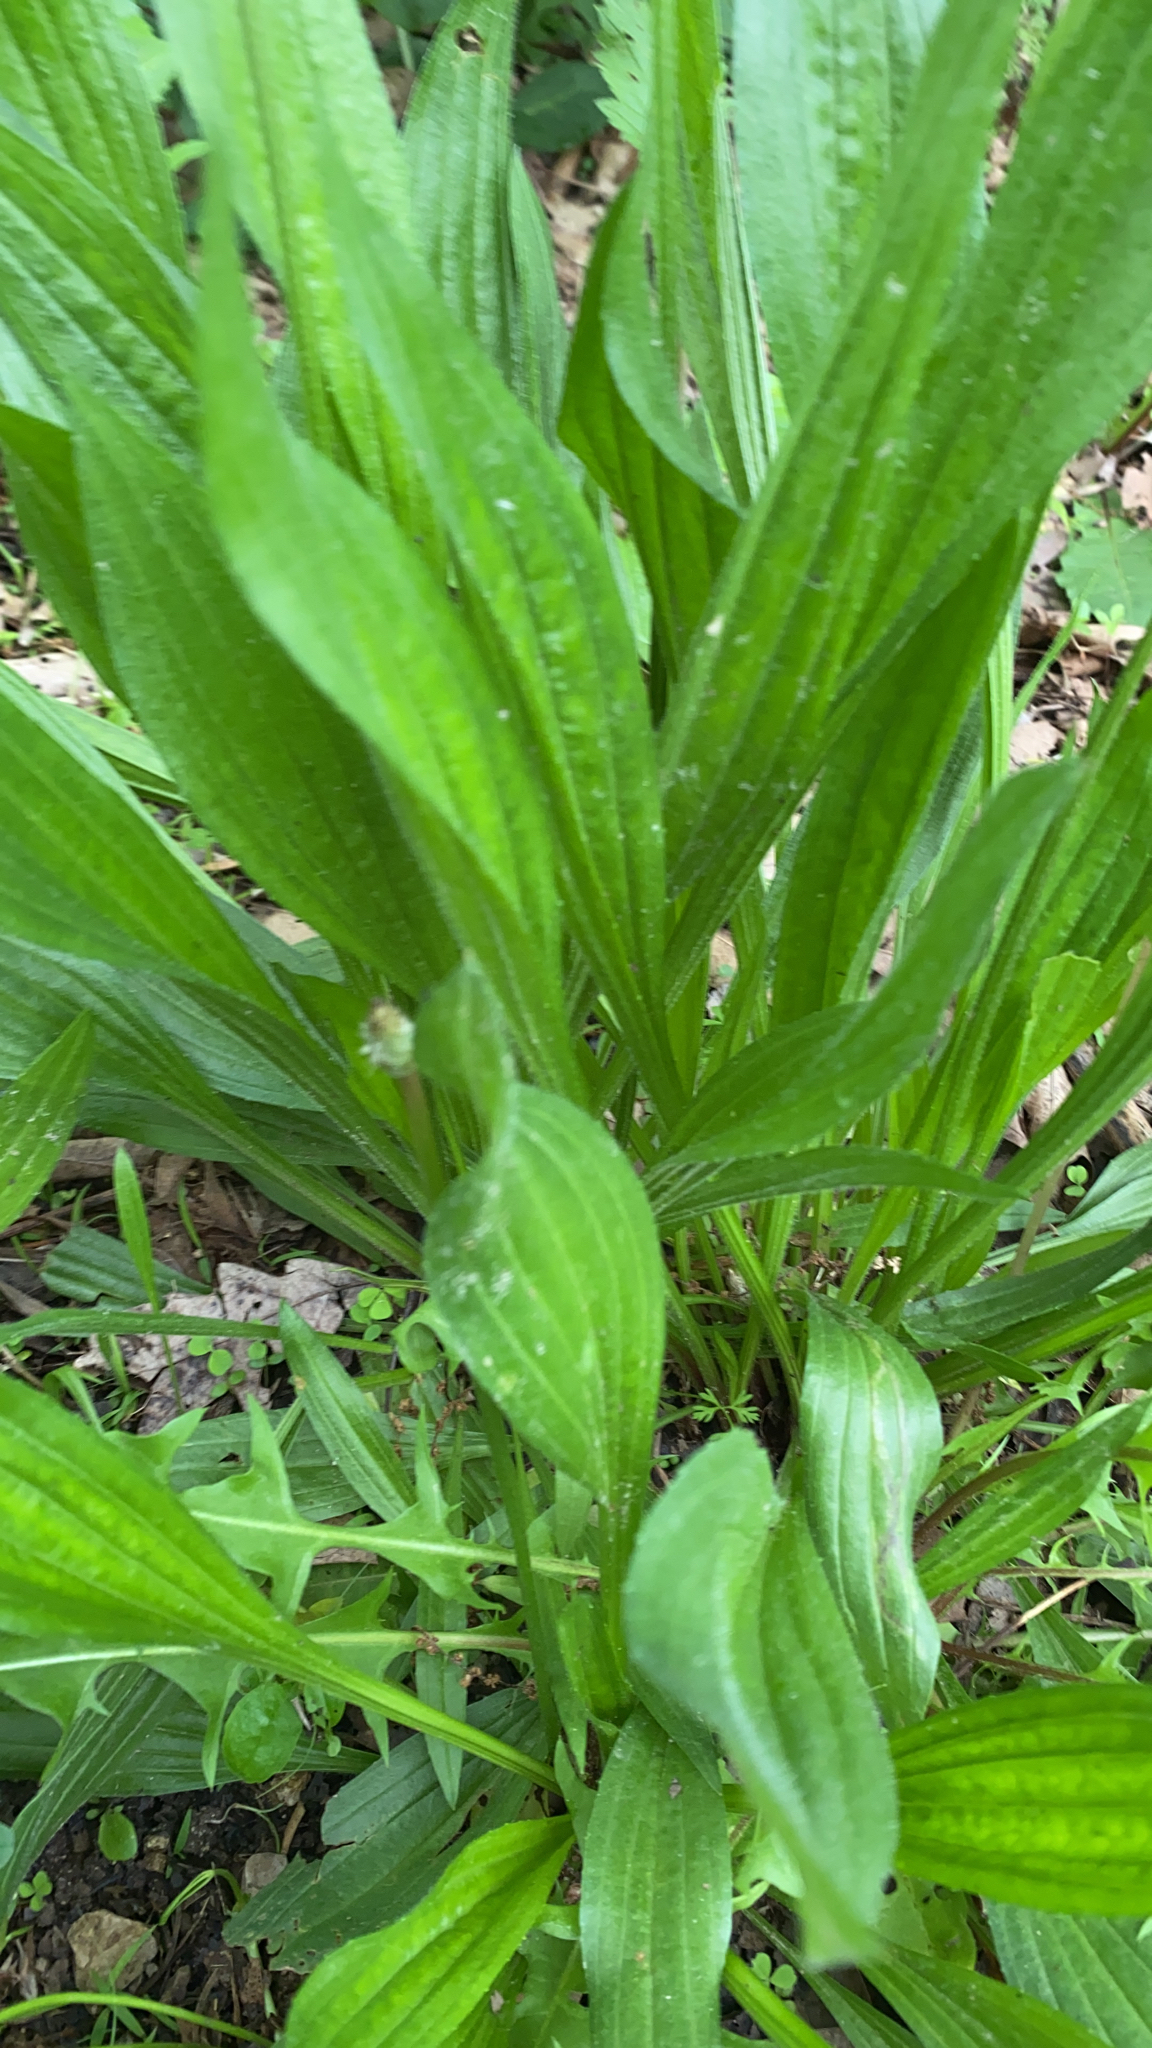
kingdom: Plantae
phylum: Tracheophyta
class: Magnoliopsida
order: Lamiales
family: Plantaginaceae
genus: Plantago
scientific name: Plantago lanceolata
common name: Ribwort plantain
